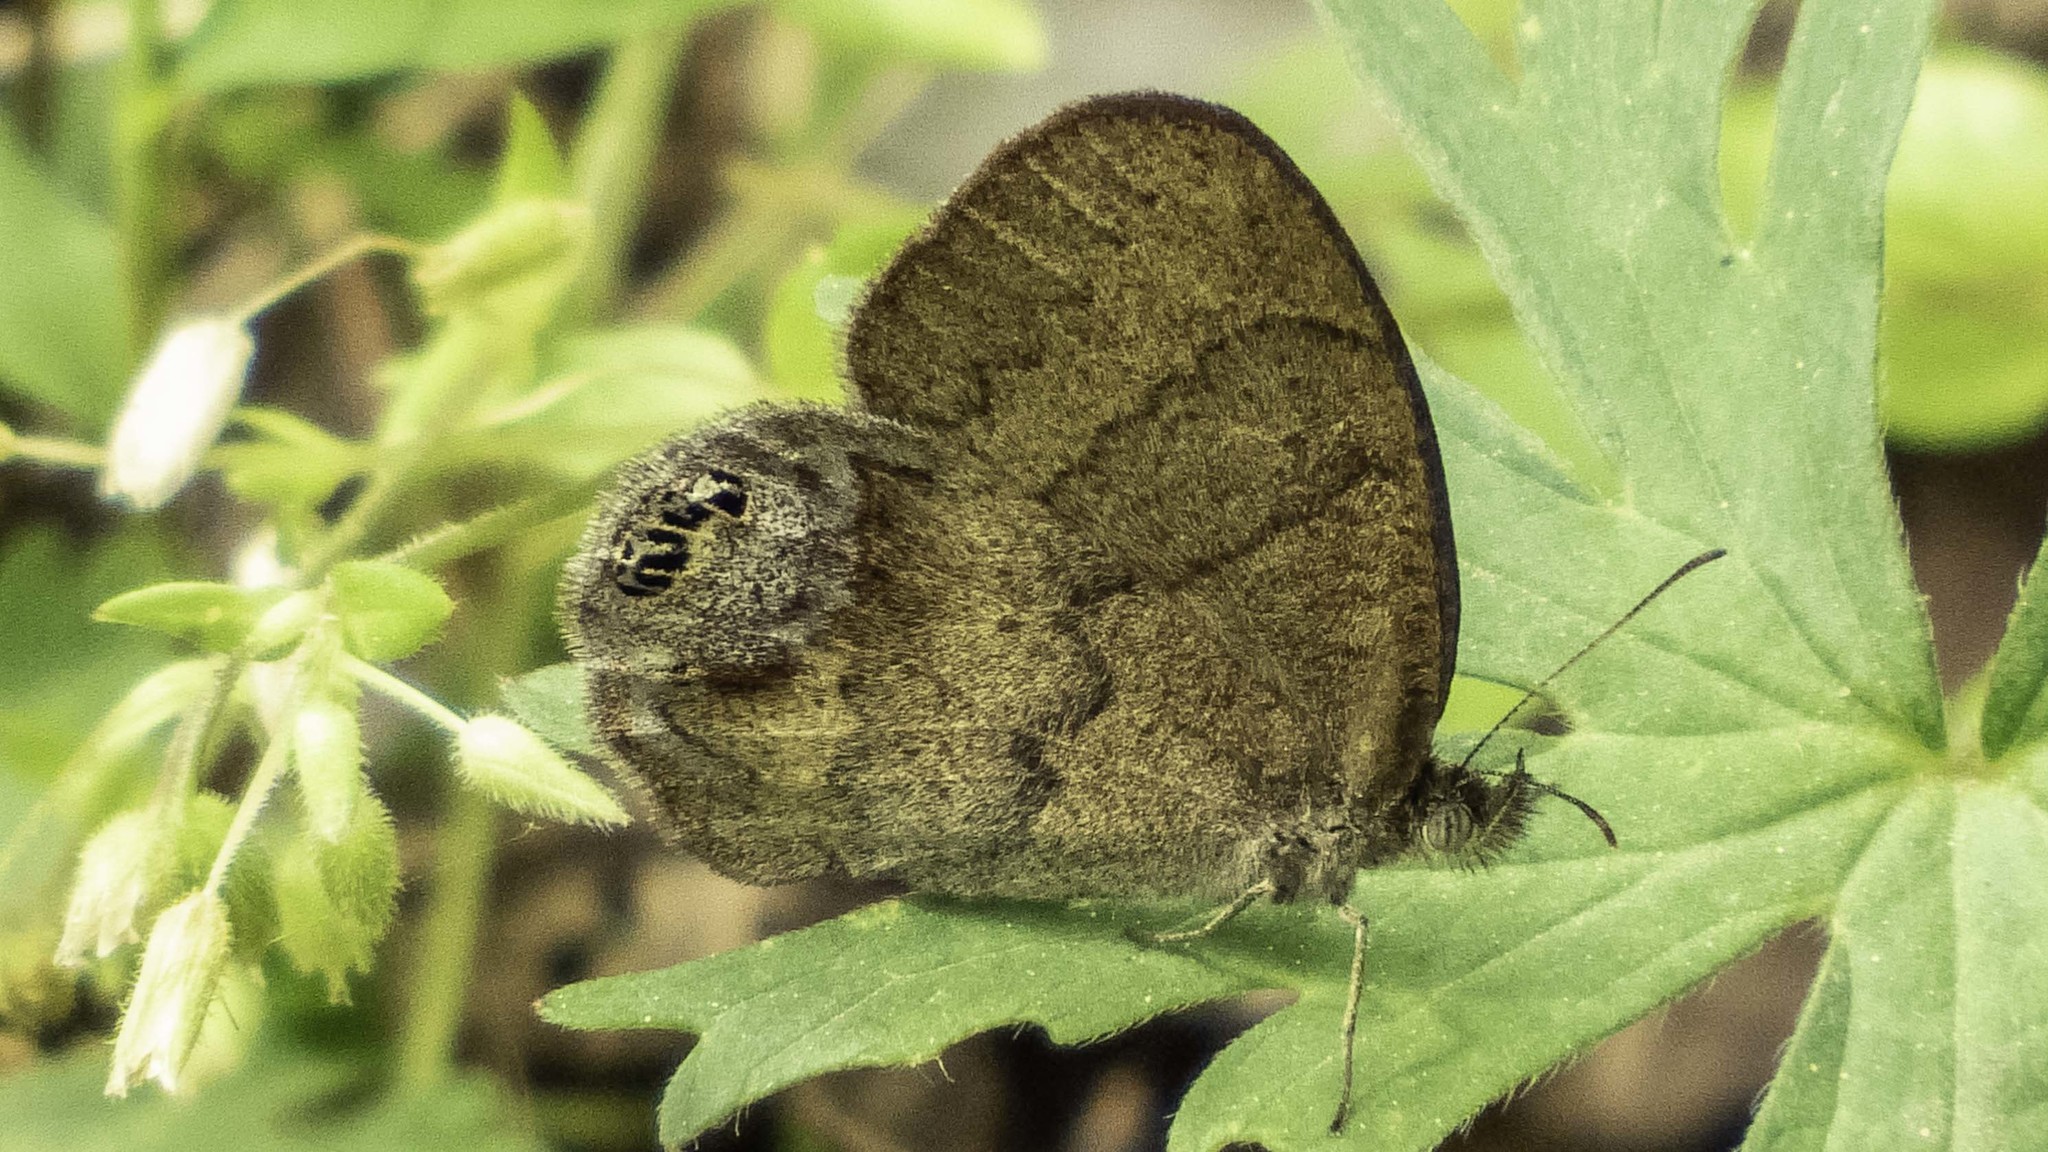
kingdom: Animalia
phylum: Arthropoda
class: Insecta
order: Lepidoptera
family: Nymphalidae
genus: Euptychia
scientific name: Euptychia cornelius
